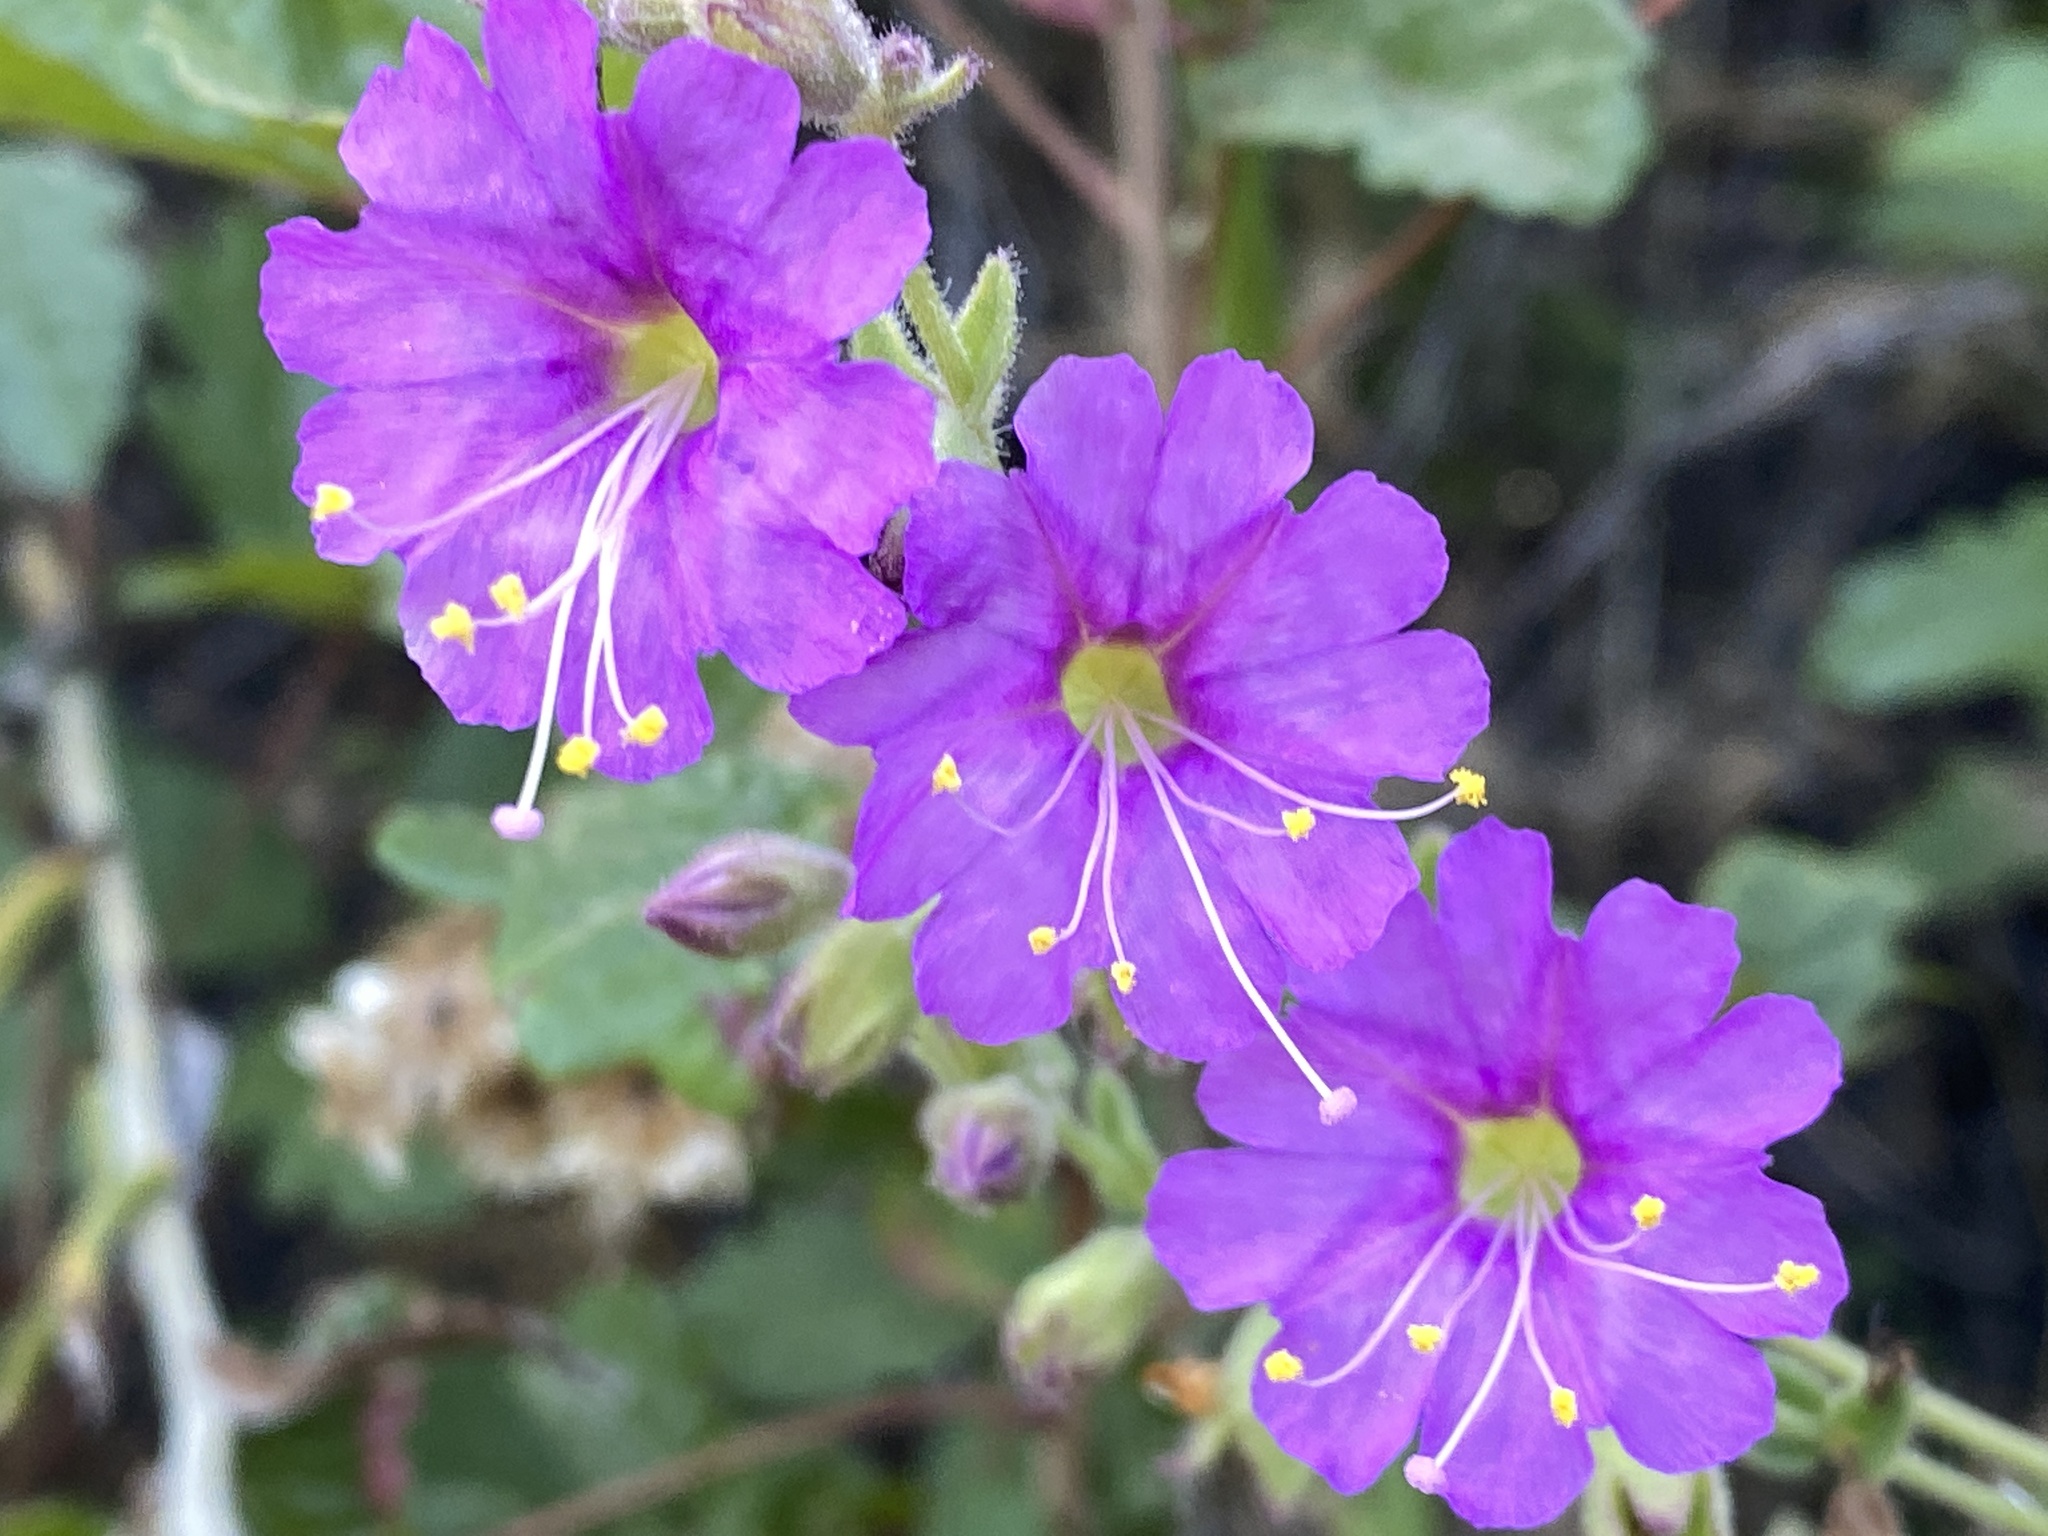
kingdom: Plantae
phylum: Tracheophyta
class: Magnoliopsida
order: Caryophyllales
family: Nyctaginaceae
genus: Mirabilis
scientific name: Mirabilis laevis
